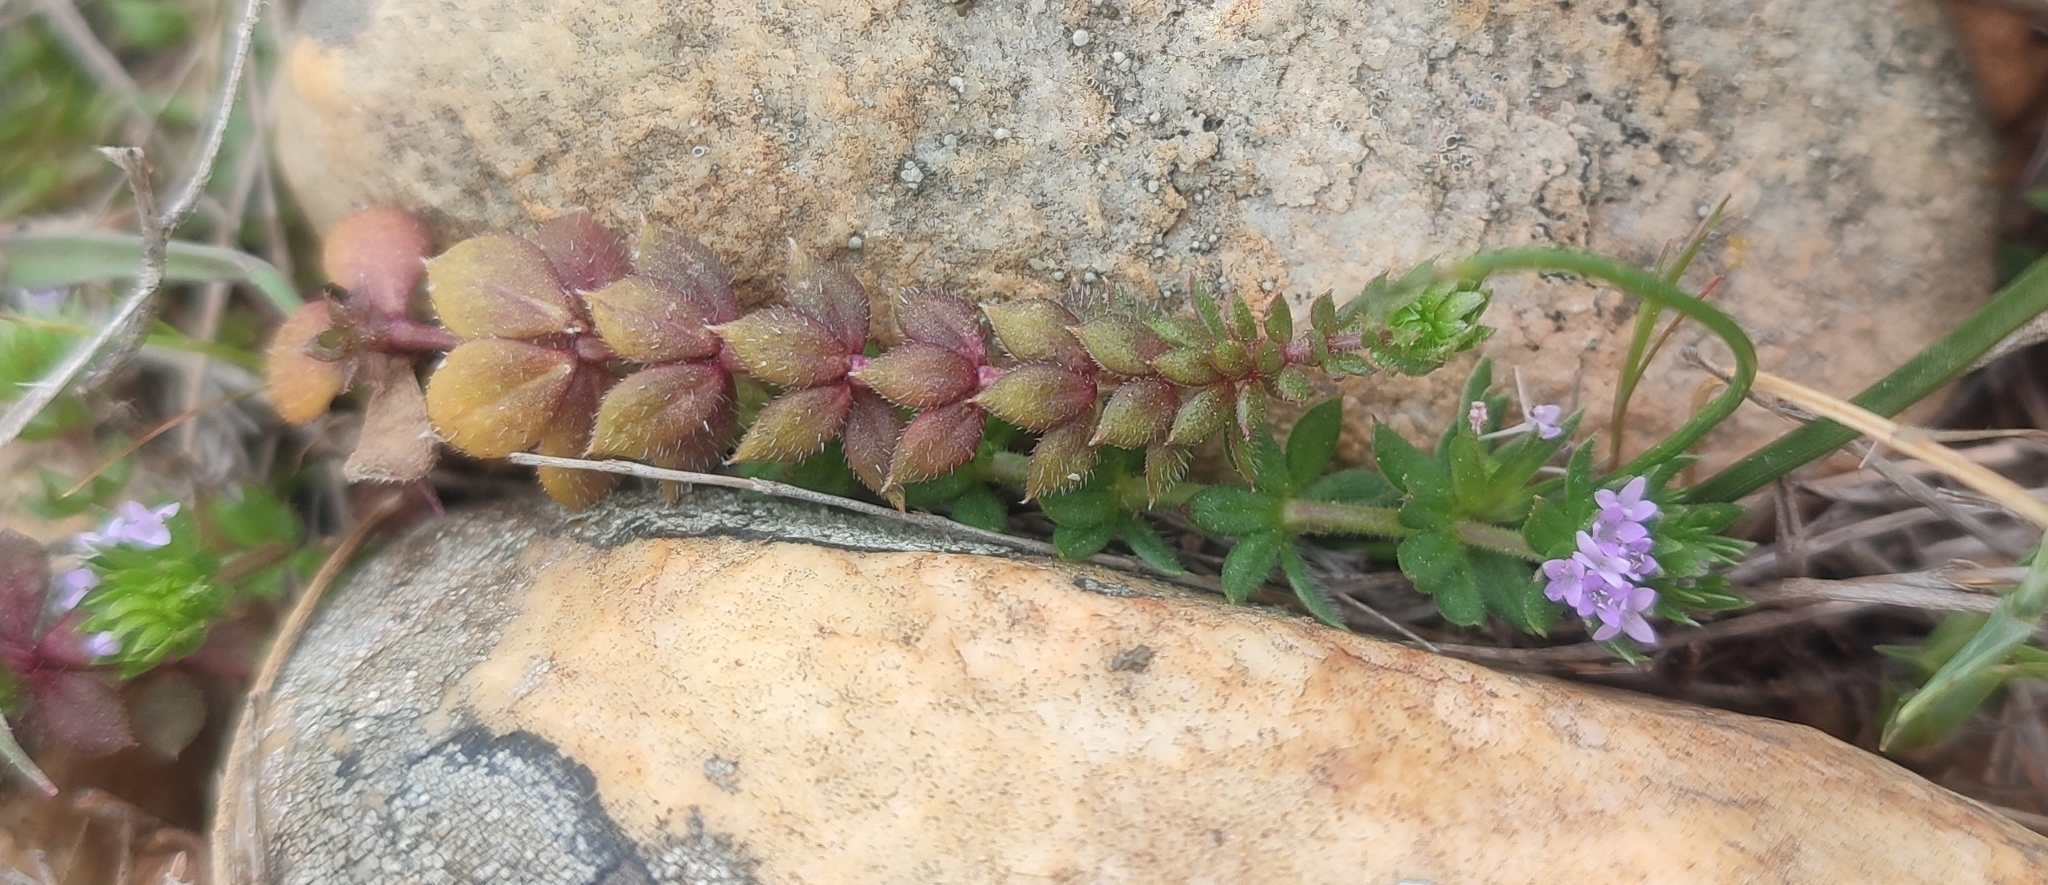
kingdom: Plantae
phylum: Tracheophyta
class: Magnoliopsida
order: Gentianales
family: Rubiaceae
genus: Sherardia
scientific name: Sherardia arvensis
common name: Field madder
